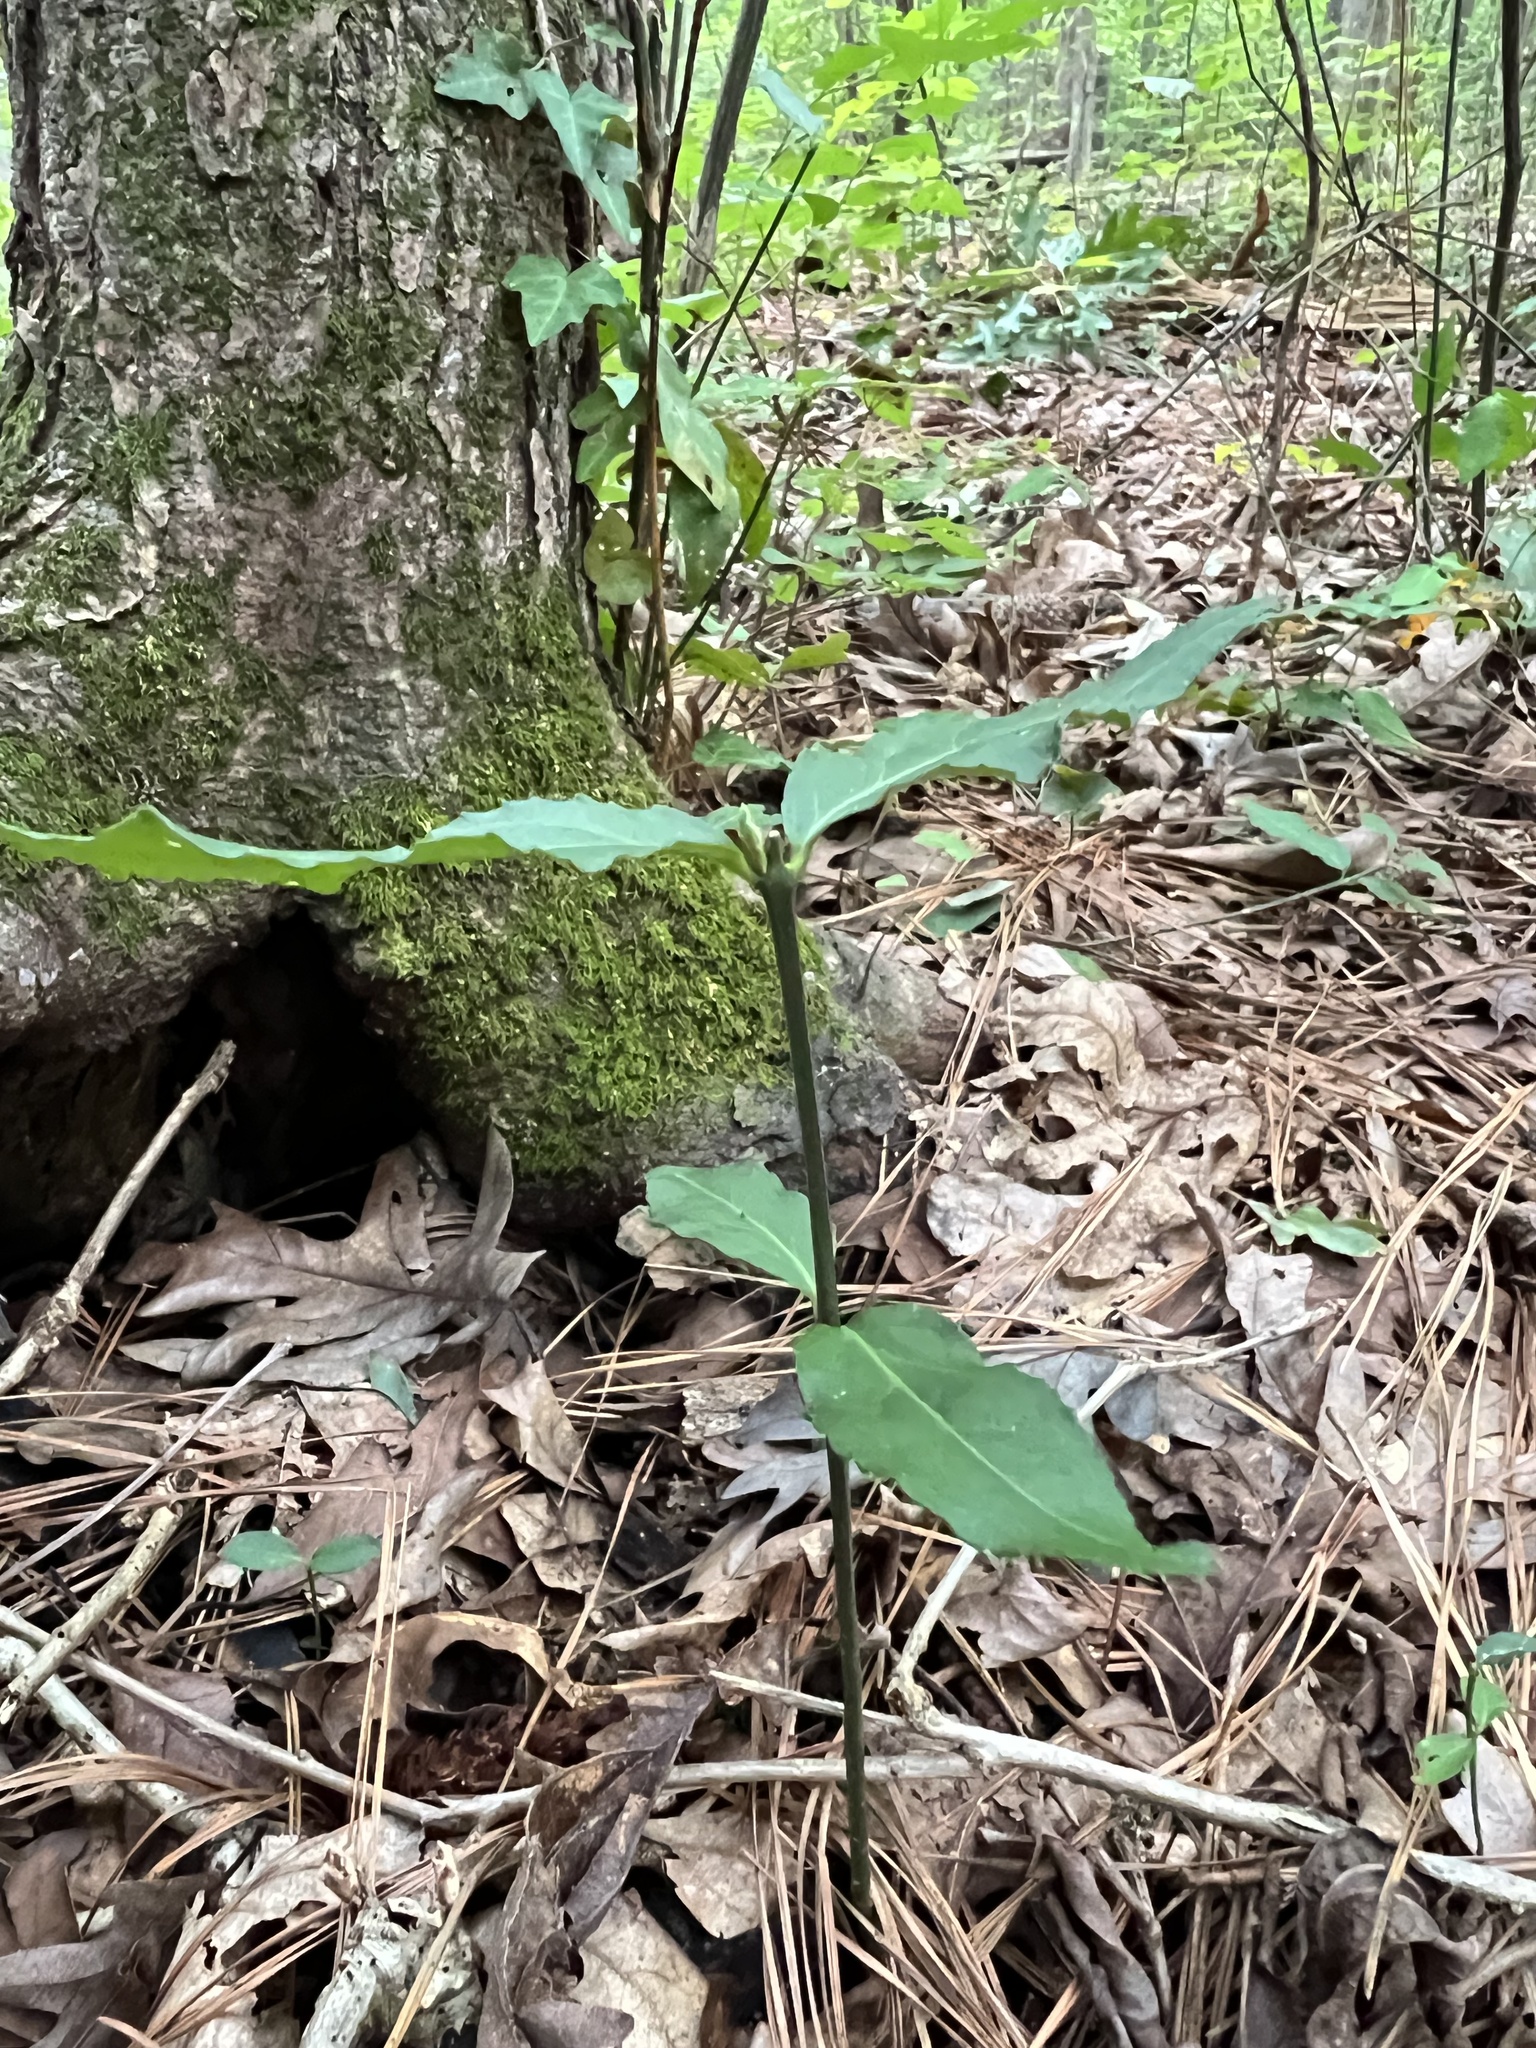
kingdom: Plantae
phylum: Tracheophyta
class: Magnoliopsida
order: Celastrales
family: Celastraceae
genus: Euonymus
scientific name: Euonymus americanus
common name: Bursting-heart
